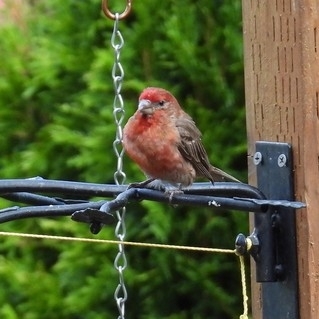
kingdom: Animalia
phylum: Chordata
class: Aves
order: Passeriformes
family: Fringillidae
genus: Haemorhous
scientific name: Haemorhous mexicanus
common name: House finch
